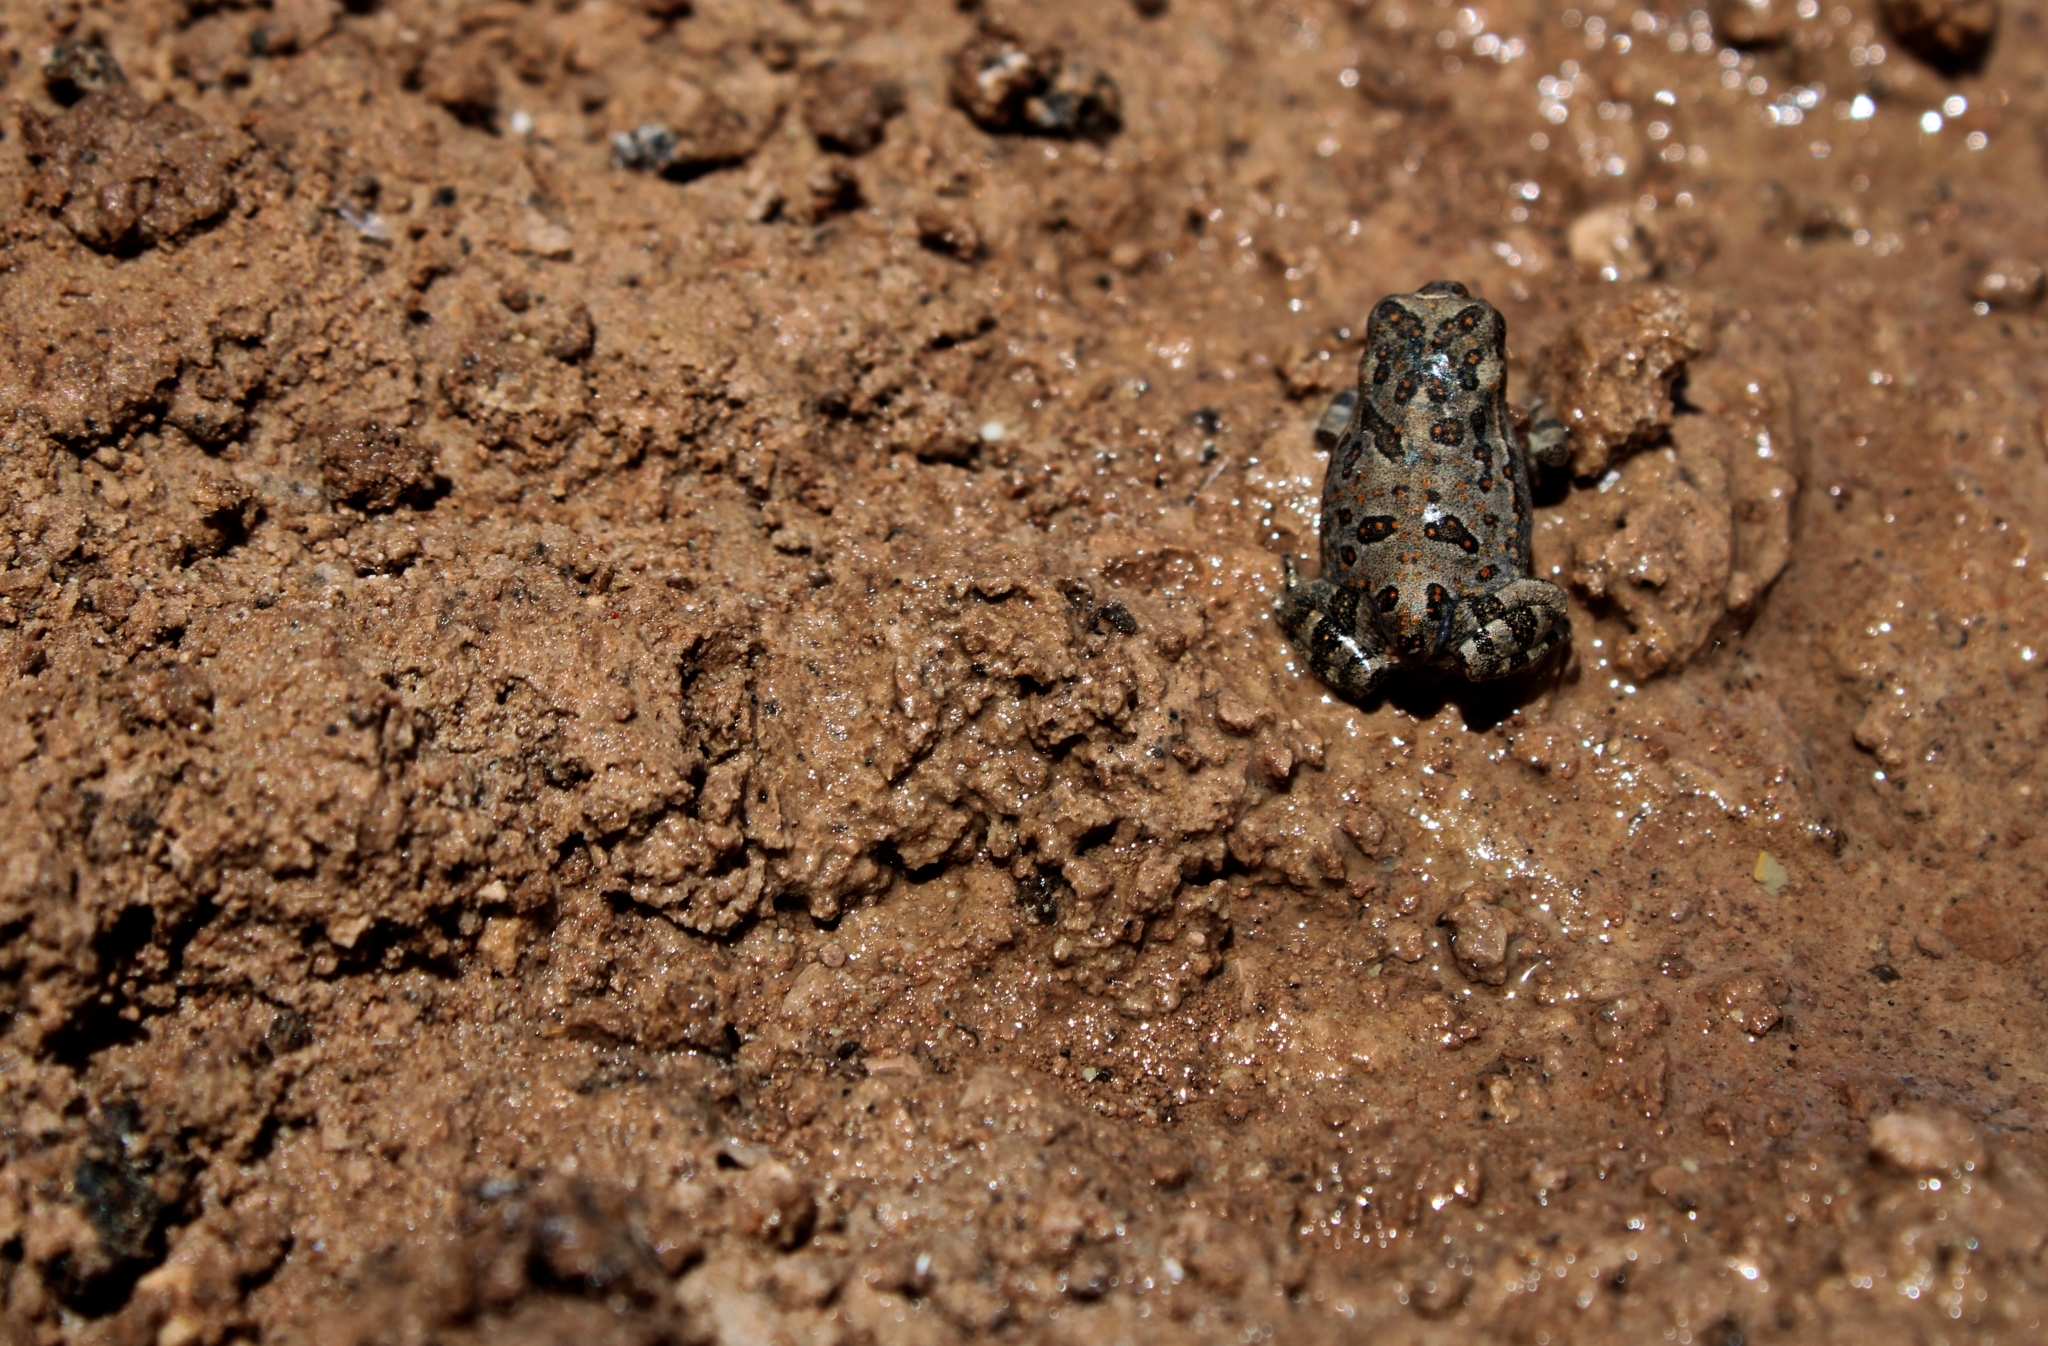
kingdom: Animalia
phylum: Chordata
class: Amphibia
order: Anura
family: Bufonidae
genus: Rhinella
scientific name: Rhinella arenarum
